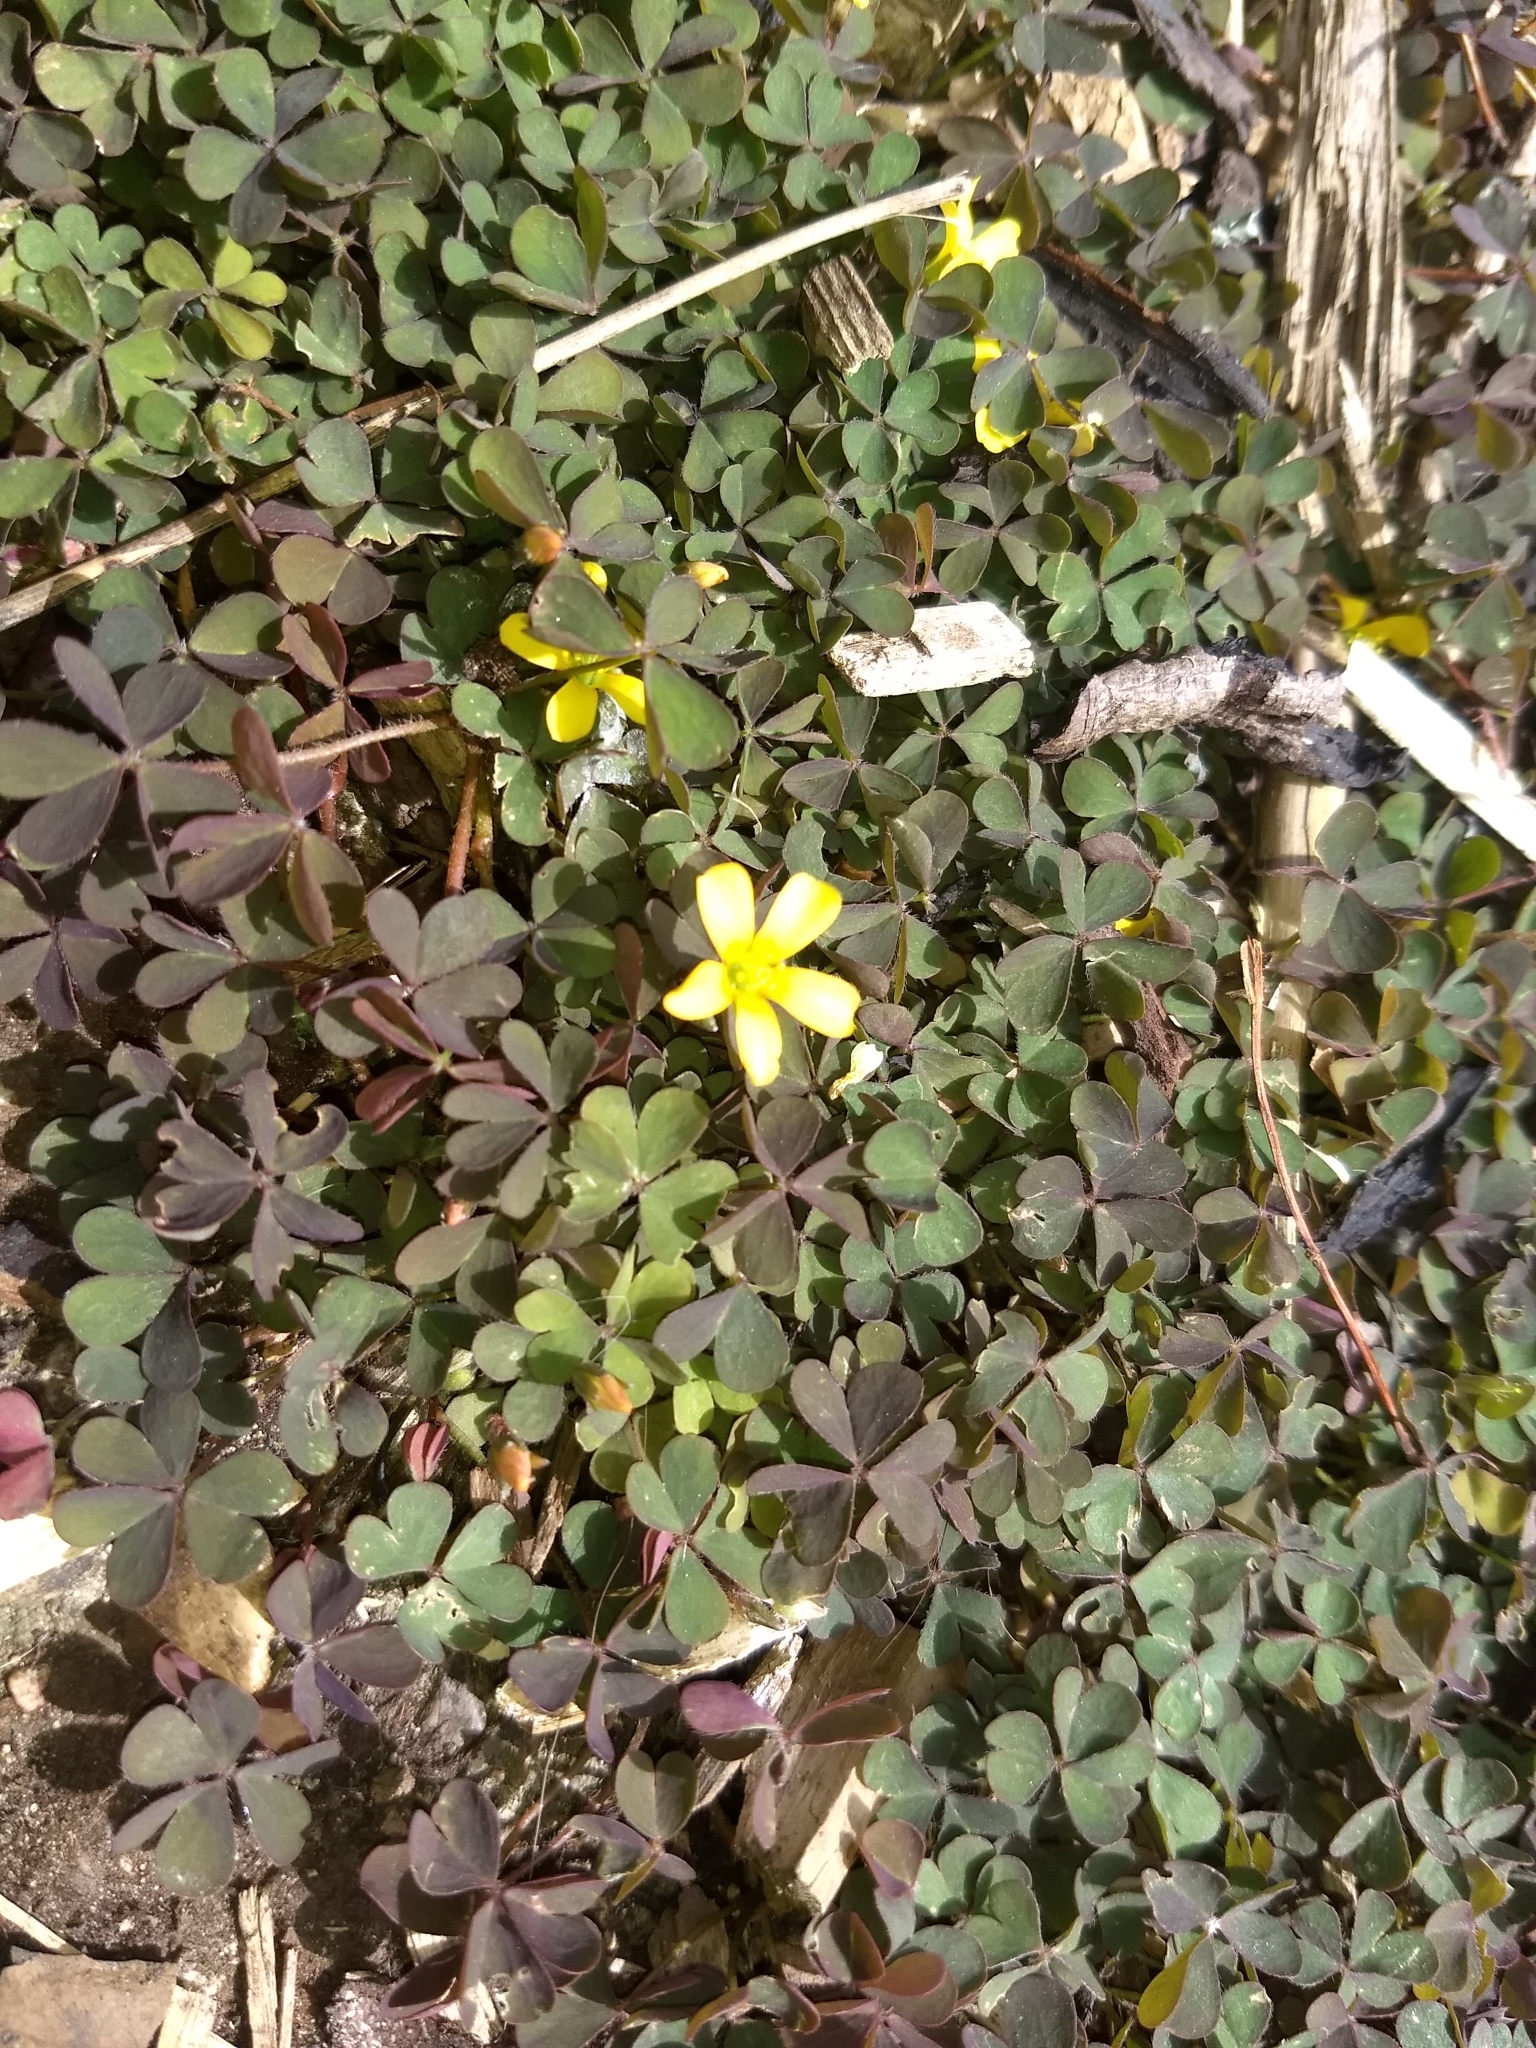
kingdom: Plantae
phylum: Tracheophyta
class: Magnoliopsida
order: Oxalidales
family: Oxalidaceae
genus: Oxalis
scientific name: Oxalis corniculata
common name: Procumbent yellow-sorrel
